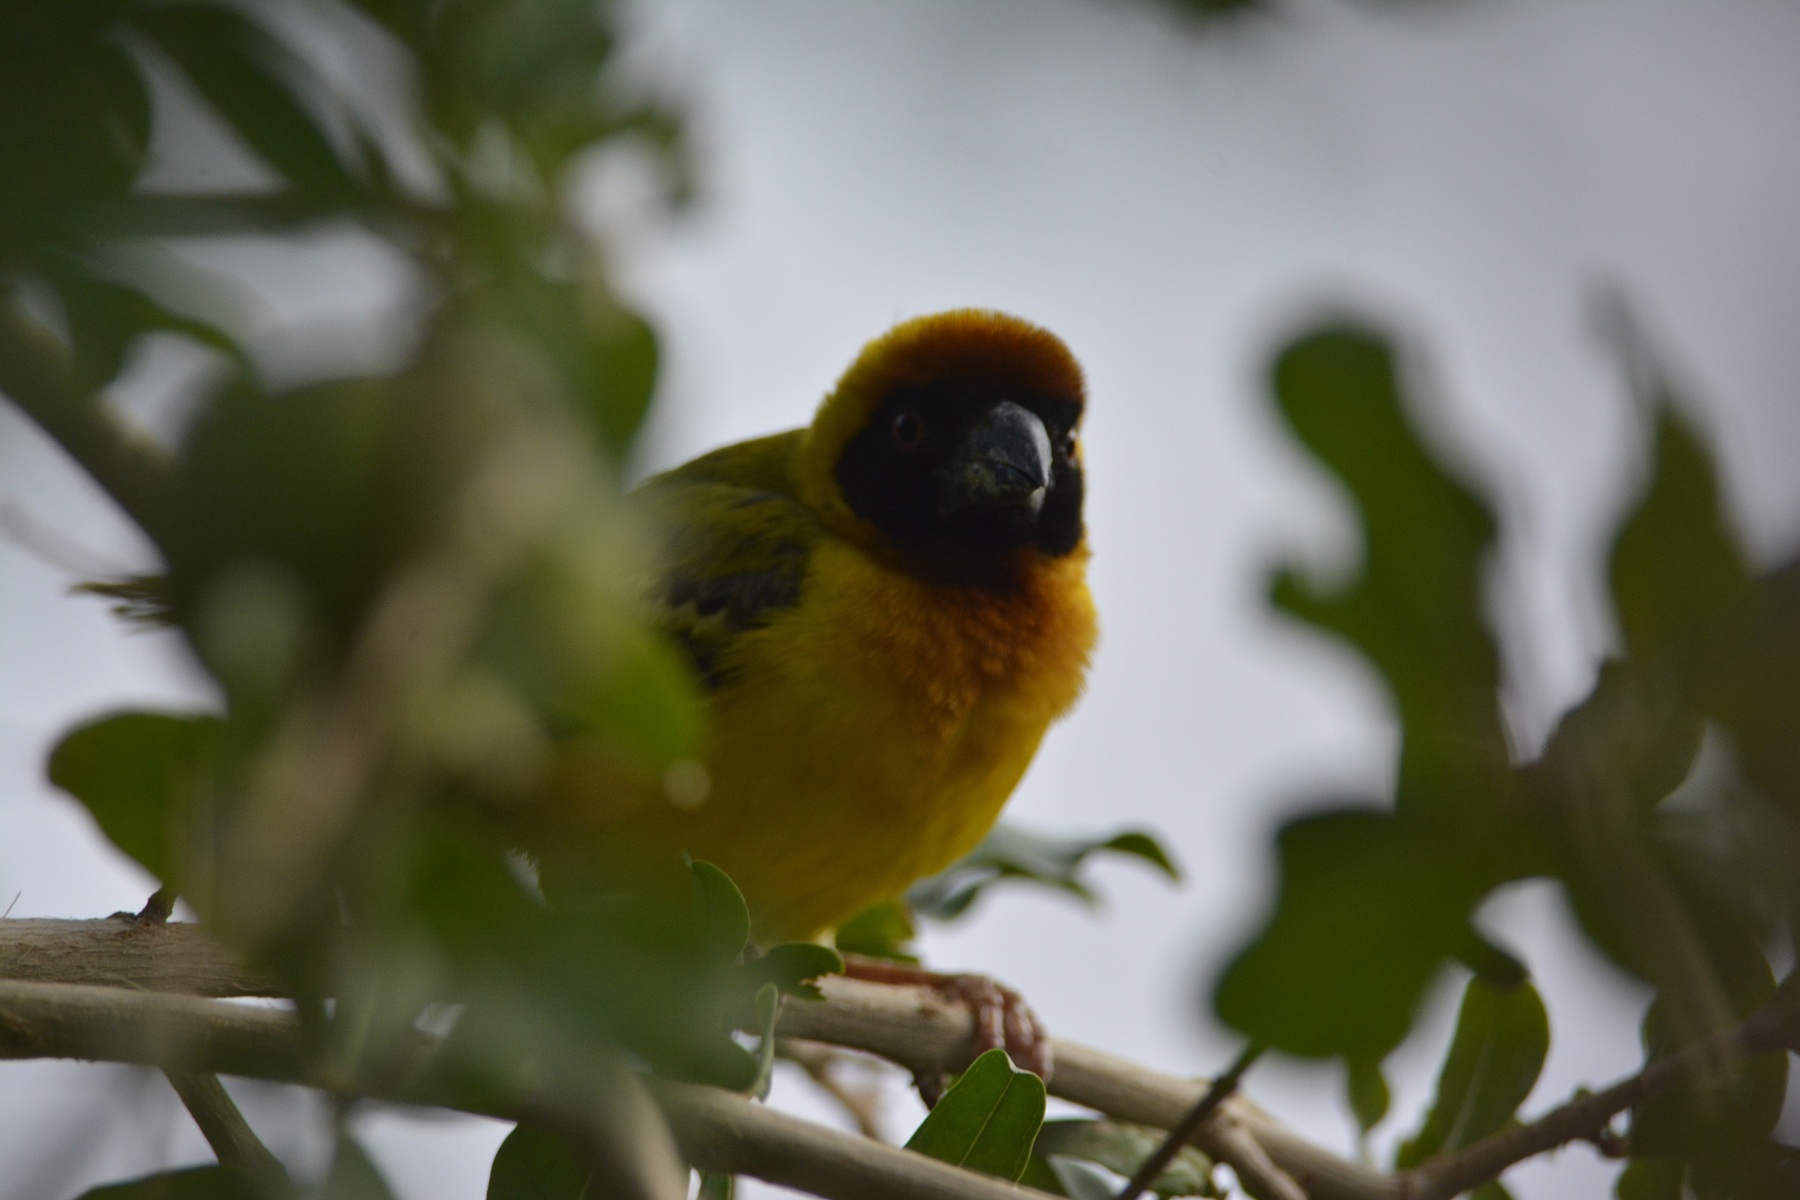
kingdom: Animalia
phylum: Chordata
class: Aves
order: Passeriformes
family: Ploceidae
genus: Ploceus
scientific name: Ploceus vitellinus
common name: Vitelline masked weaver
